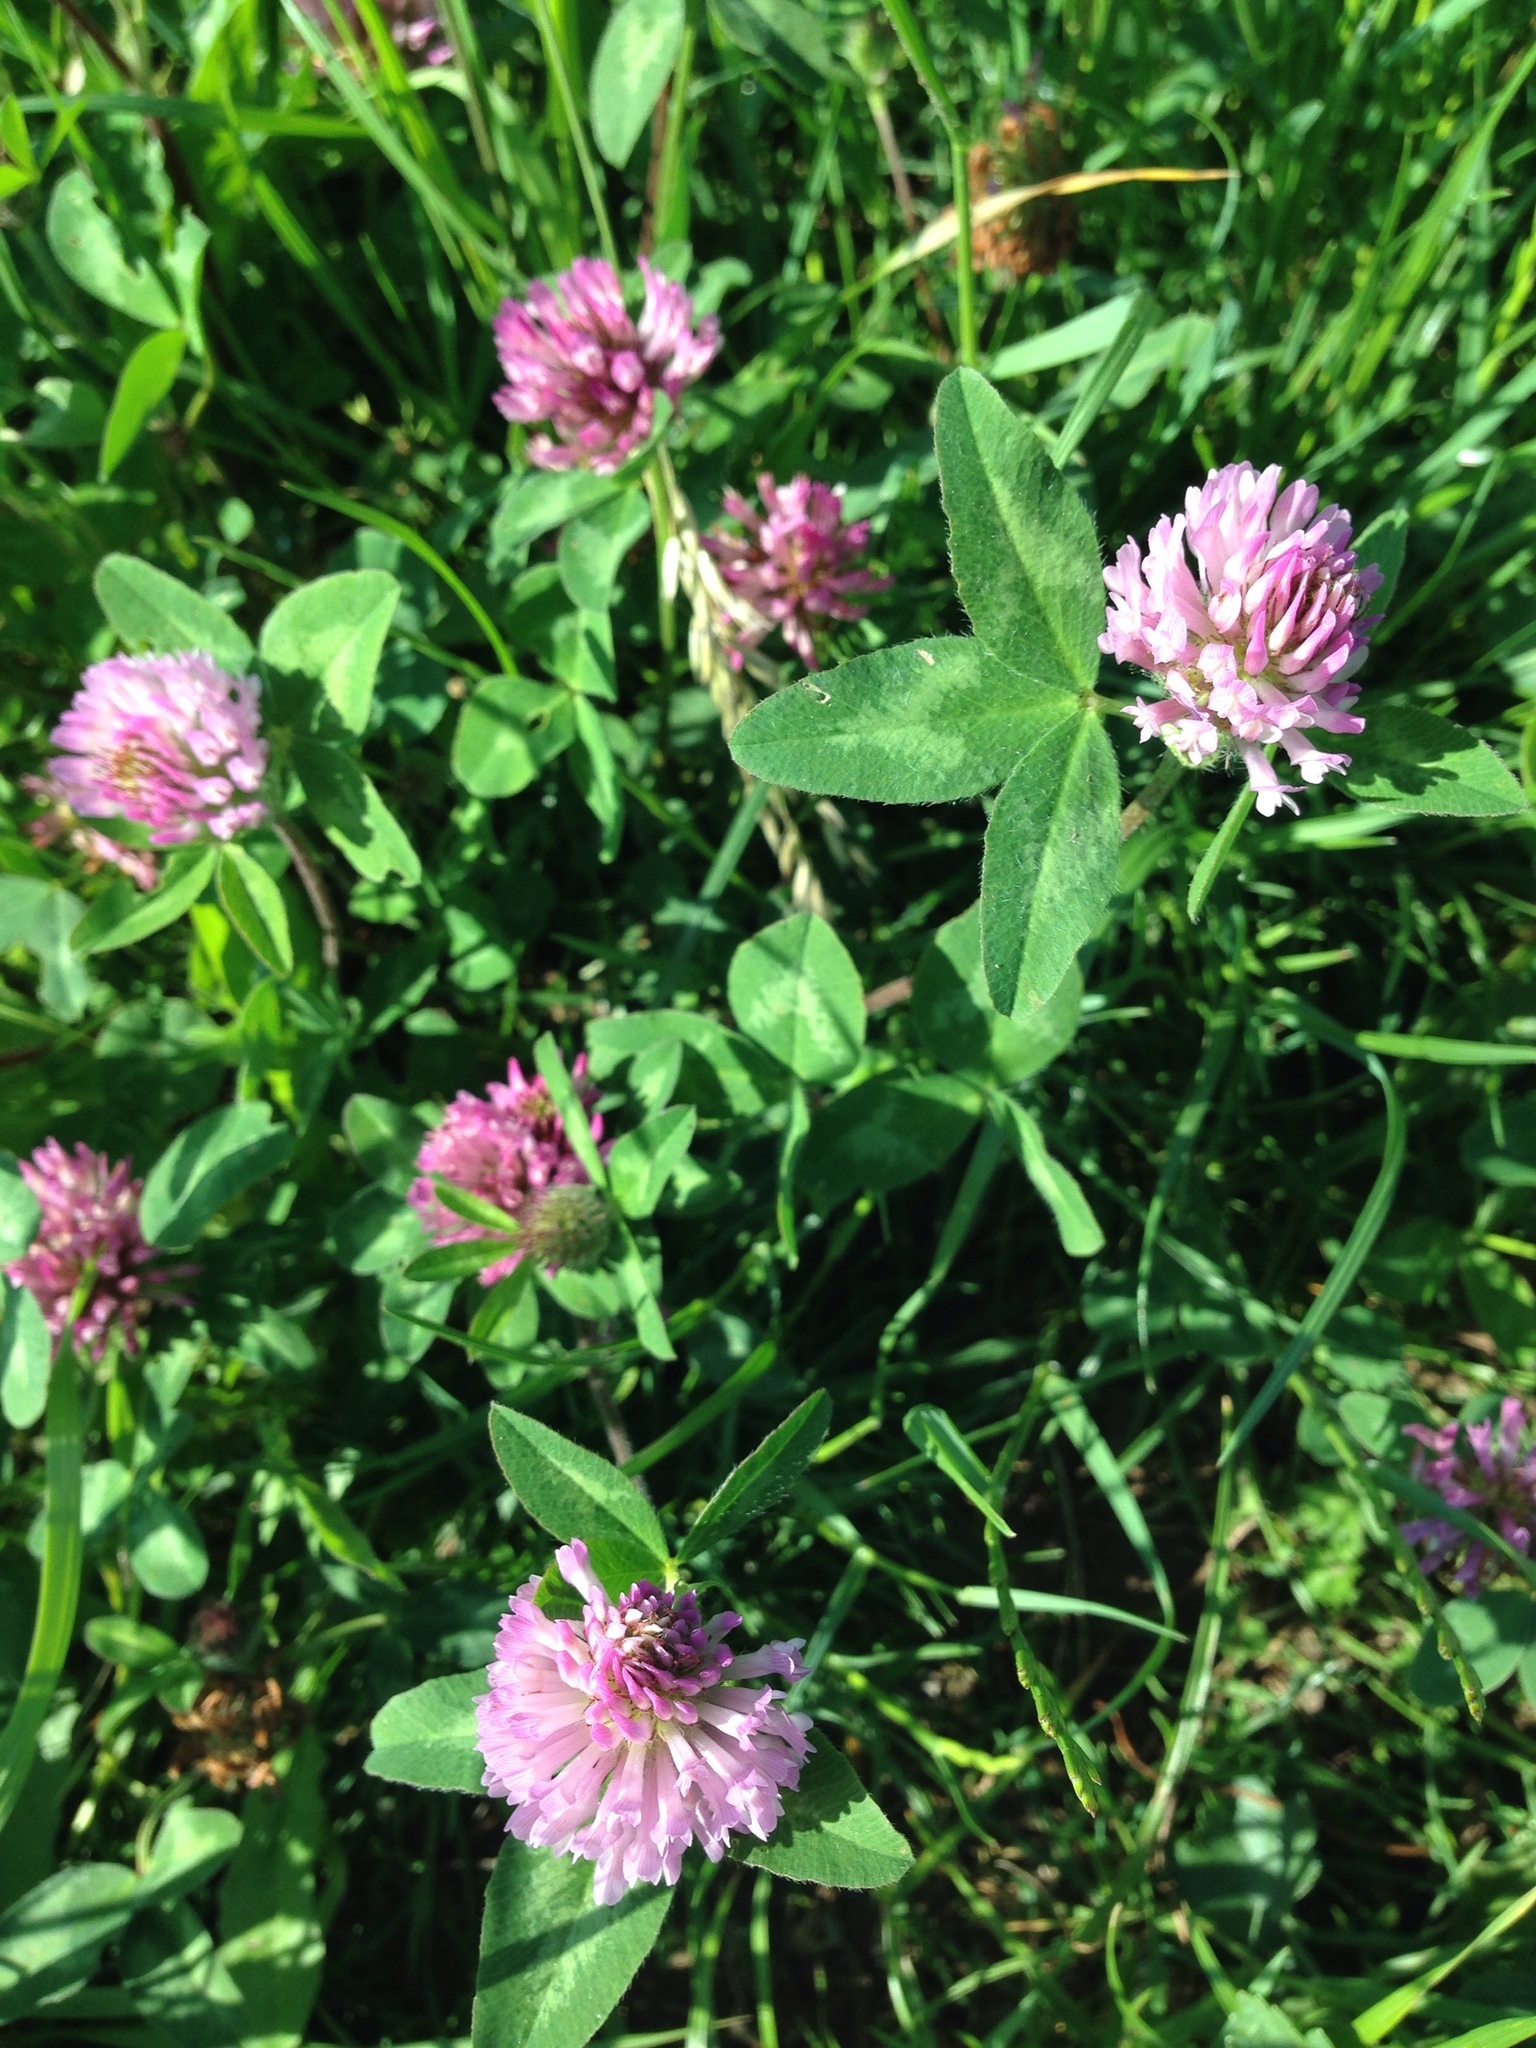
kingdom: Plantae
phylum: Tracheophyta
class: Magnoliopsida
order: Fabales
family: Fabaceae
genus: Trifolium
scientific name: Trifolium pratense
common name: Red clover
